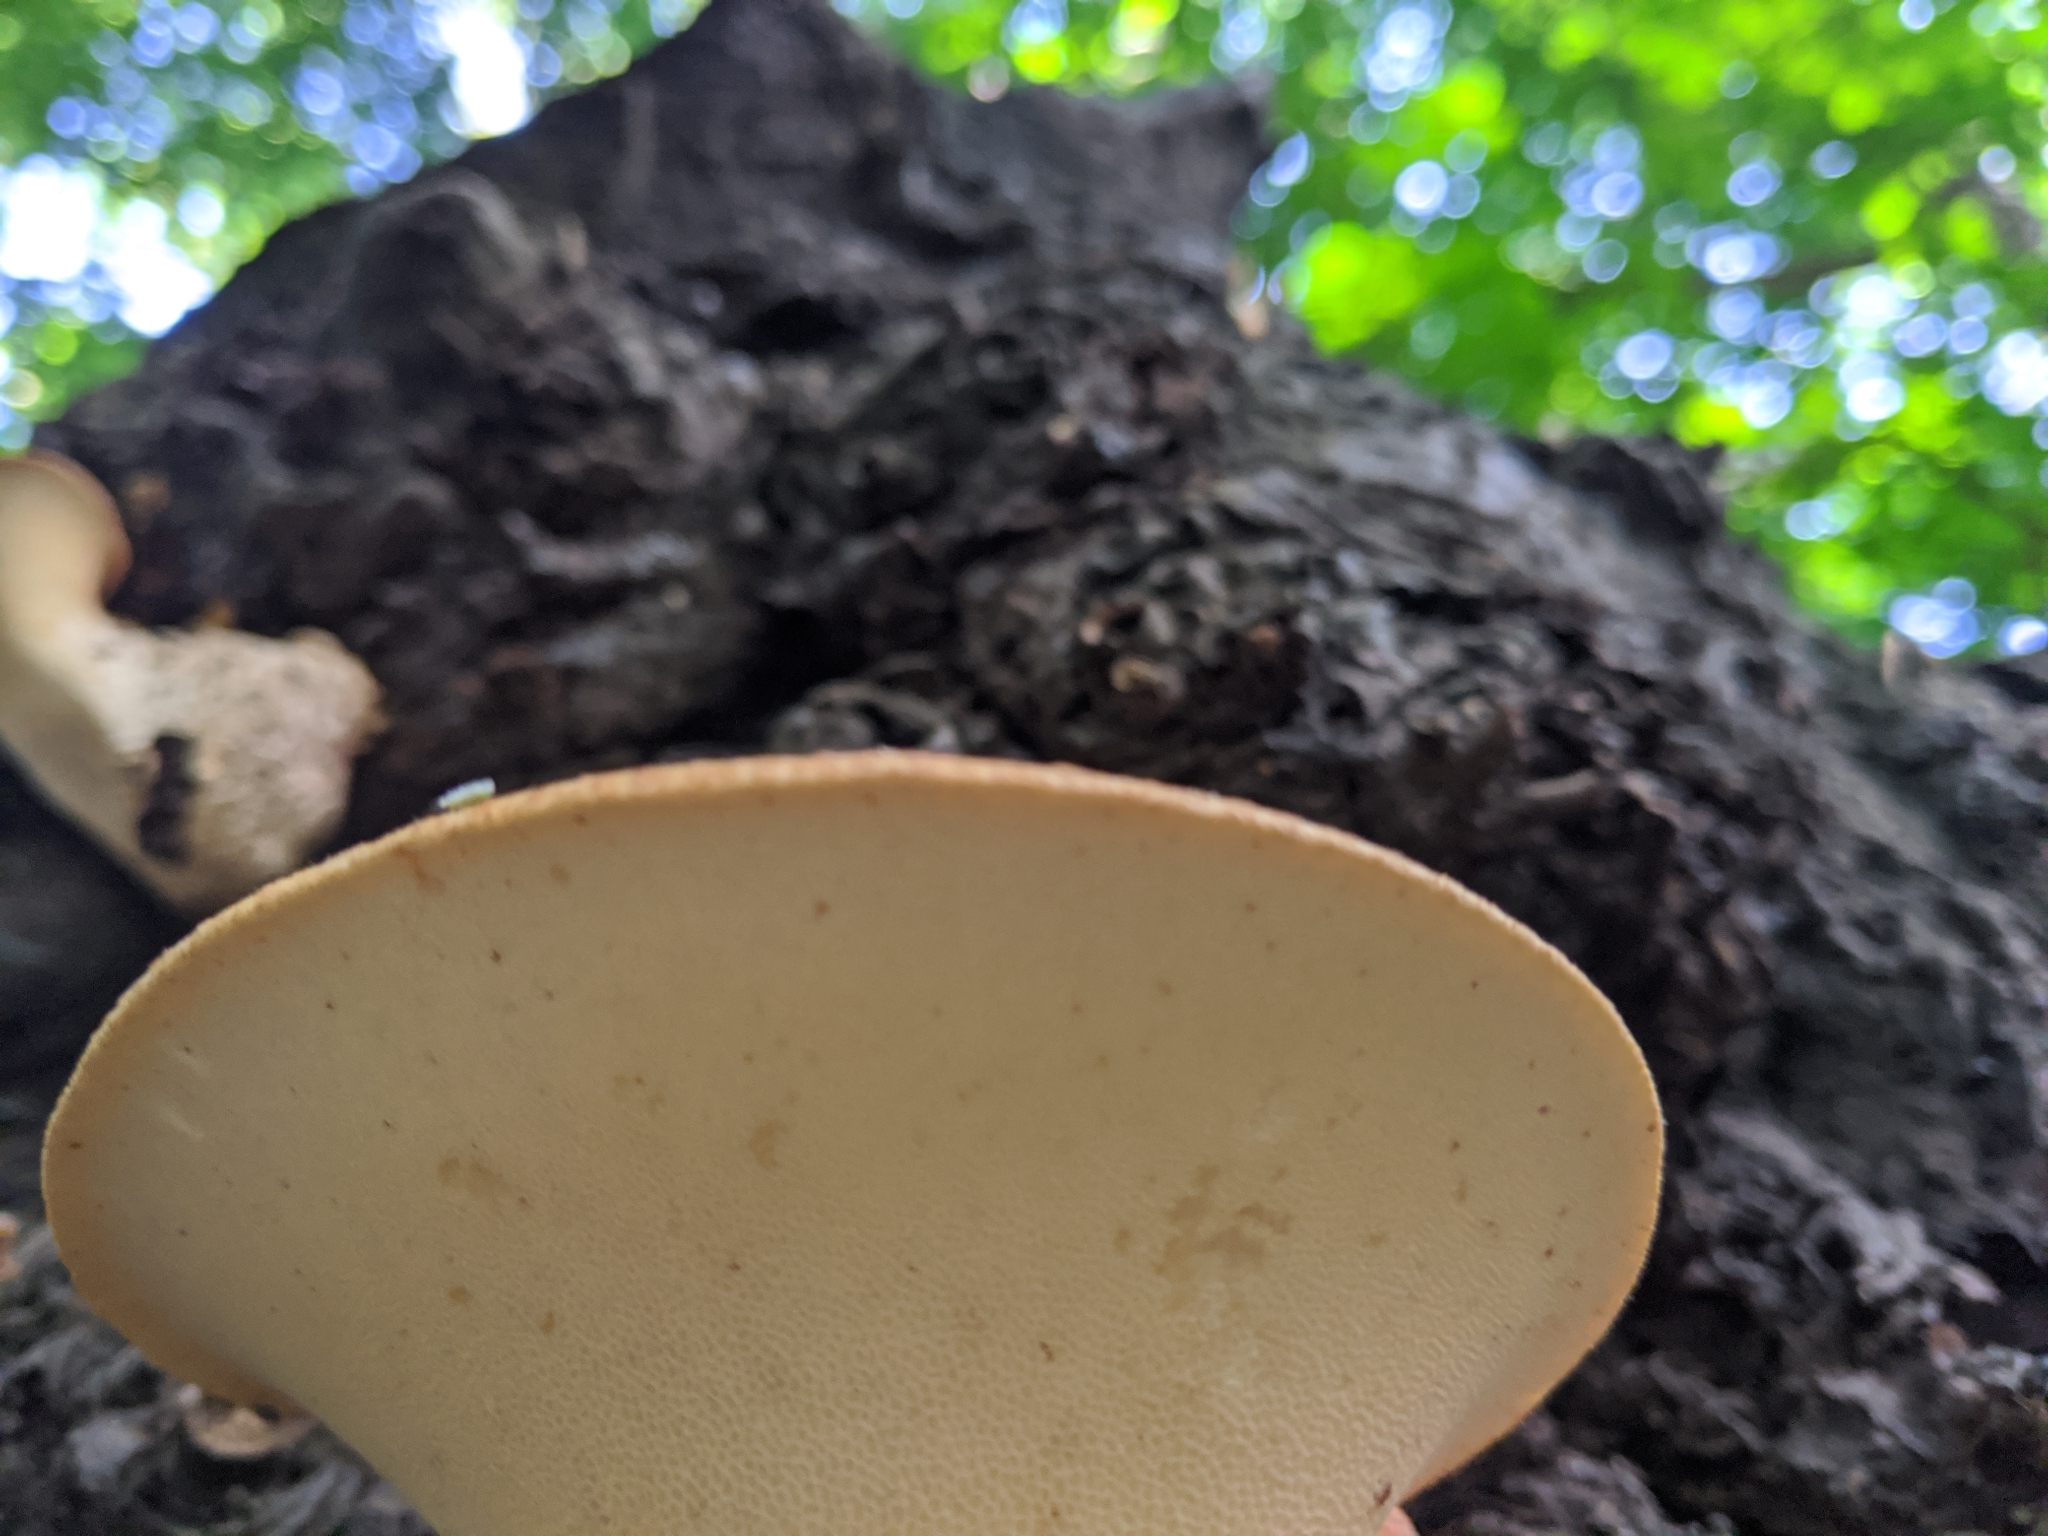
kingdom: Fungi
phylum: Basidiomycota
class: Agaricomycetes
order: Polyporales
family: Polyporaceae
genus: Cerioporus
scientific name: Cerioporus squamosus
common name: Dryad's saddle
